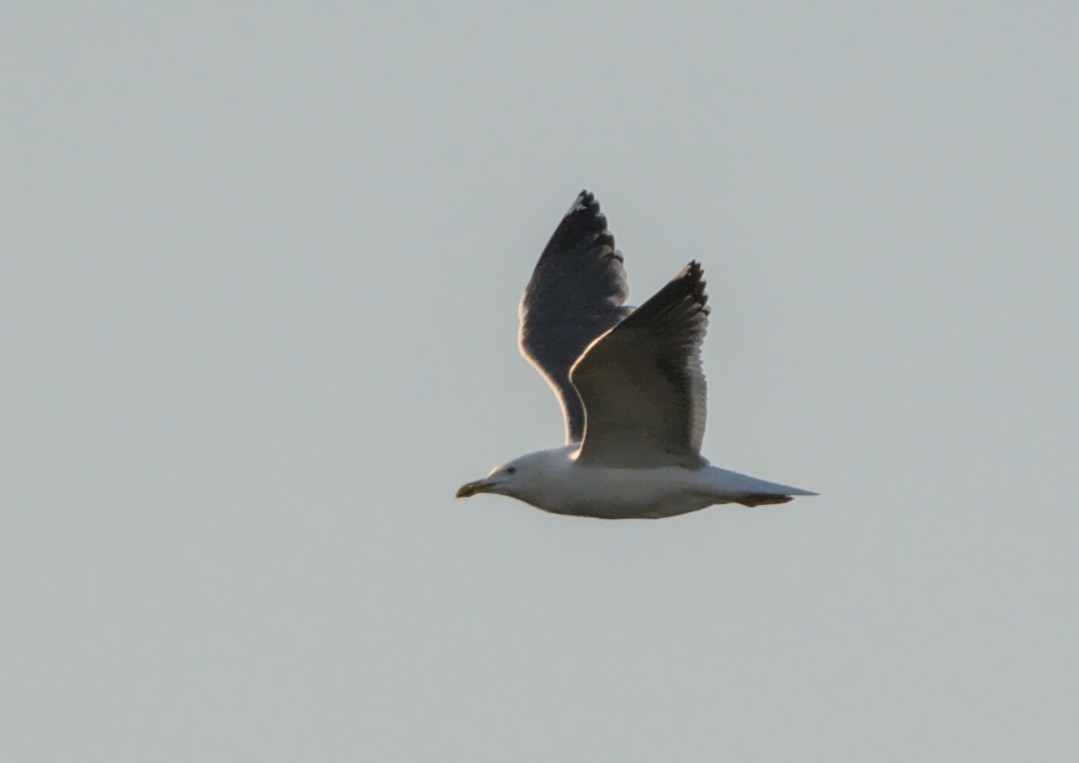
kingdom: Animalia
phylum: Chordata
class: Aves
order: Charadriiformes
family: Laridae
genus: Larus
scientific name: Larus fuscus
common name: Lesser black-backed gull
